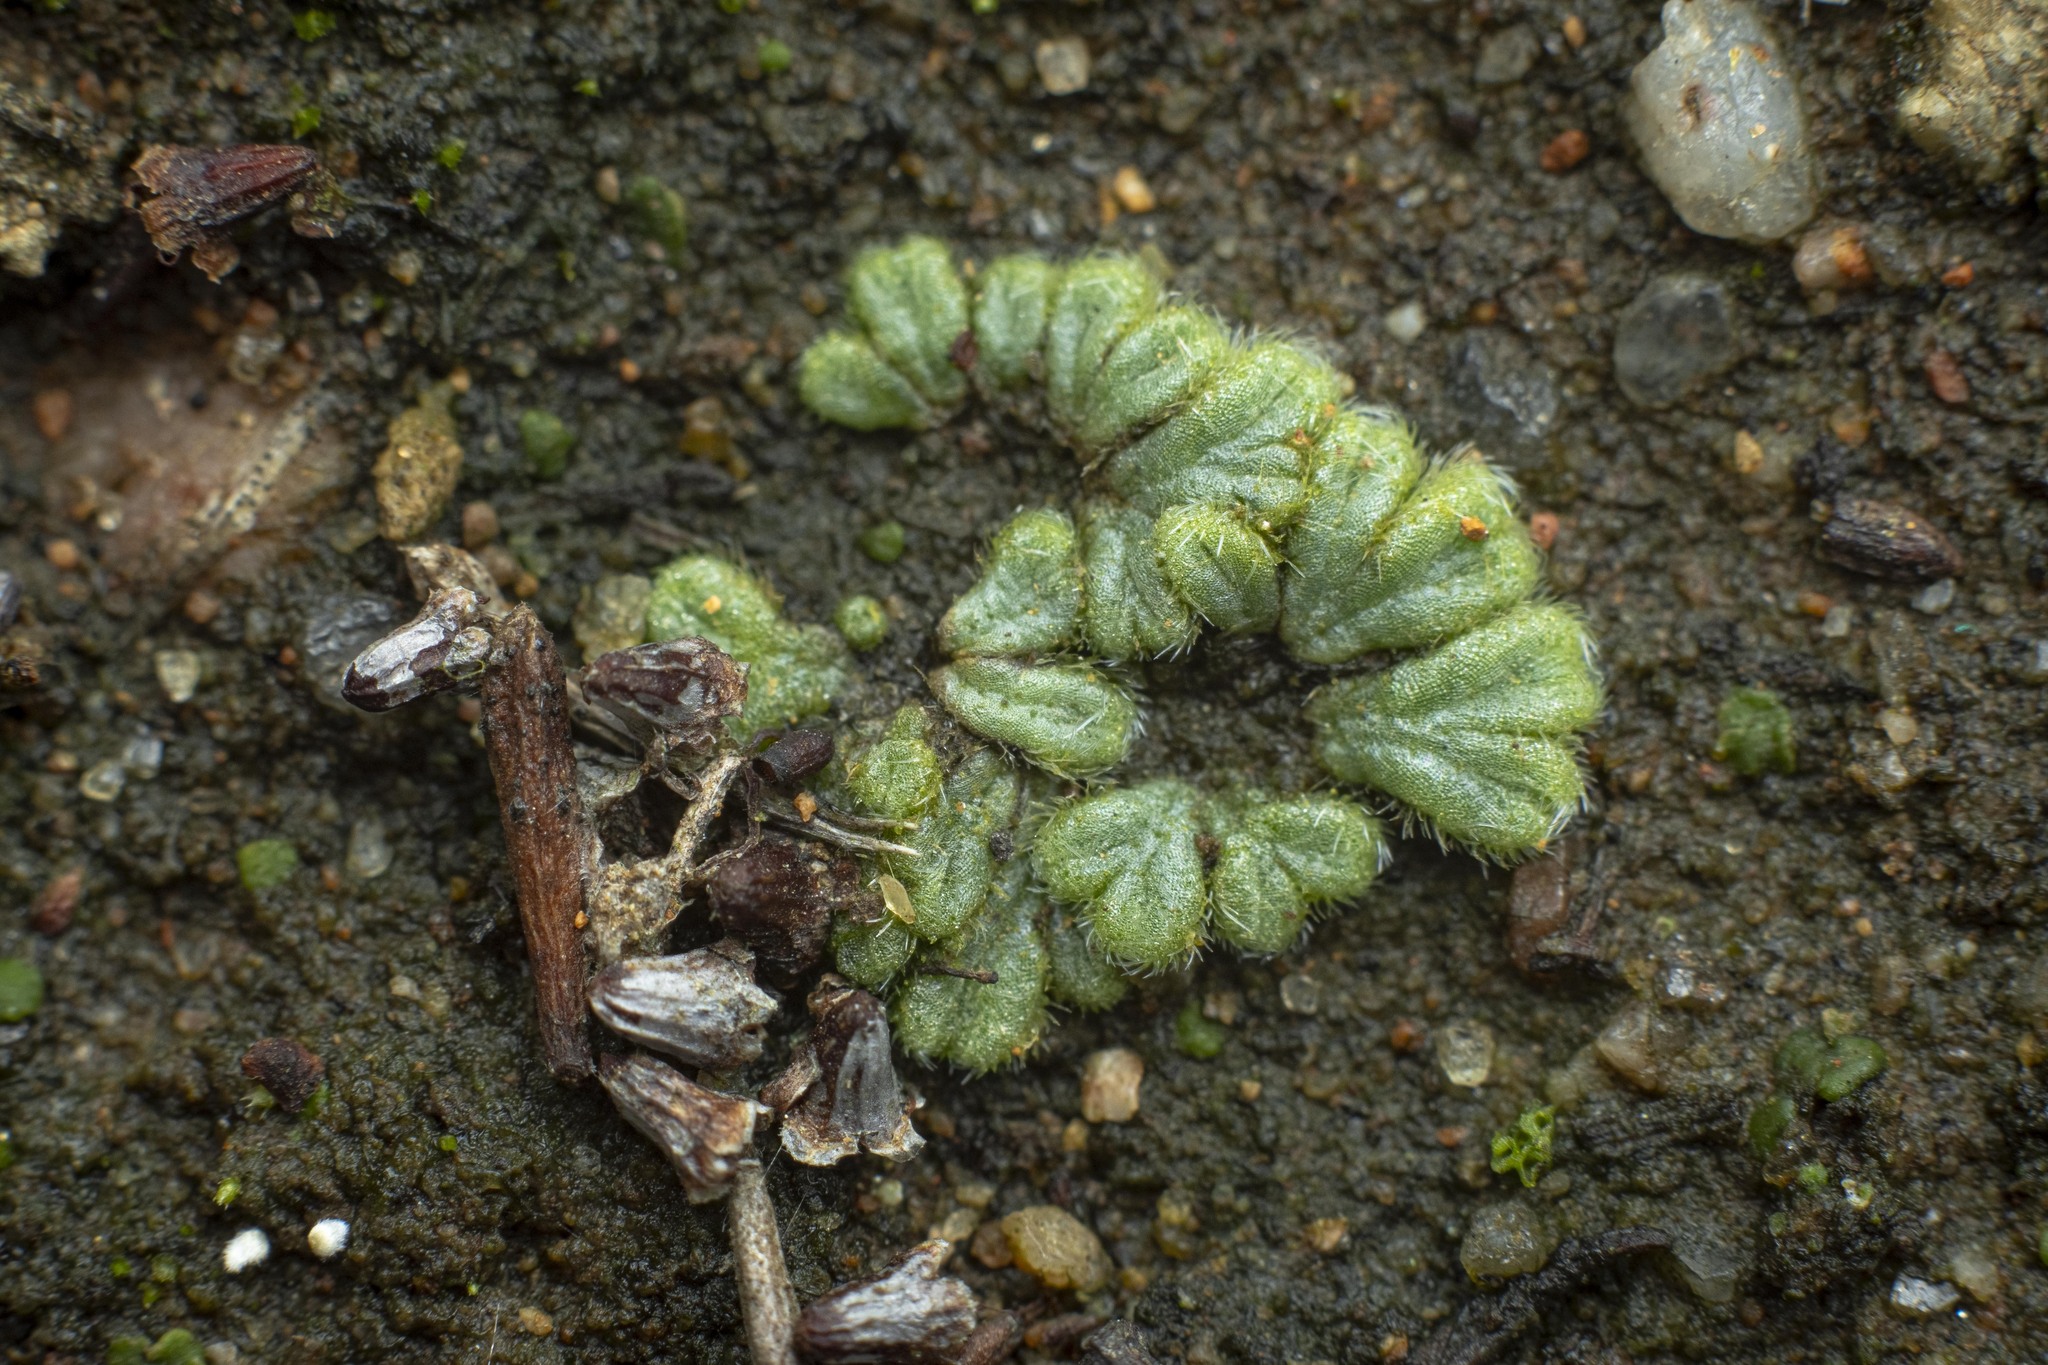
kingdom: Plantae
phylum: Marchantiophyta
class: Marchantiopsida
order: Marchantiales
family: Ricciaceae
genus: Riccia
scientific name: Riccia trichocarpa
